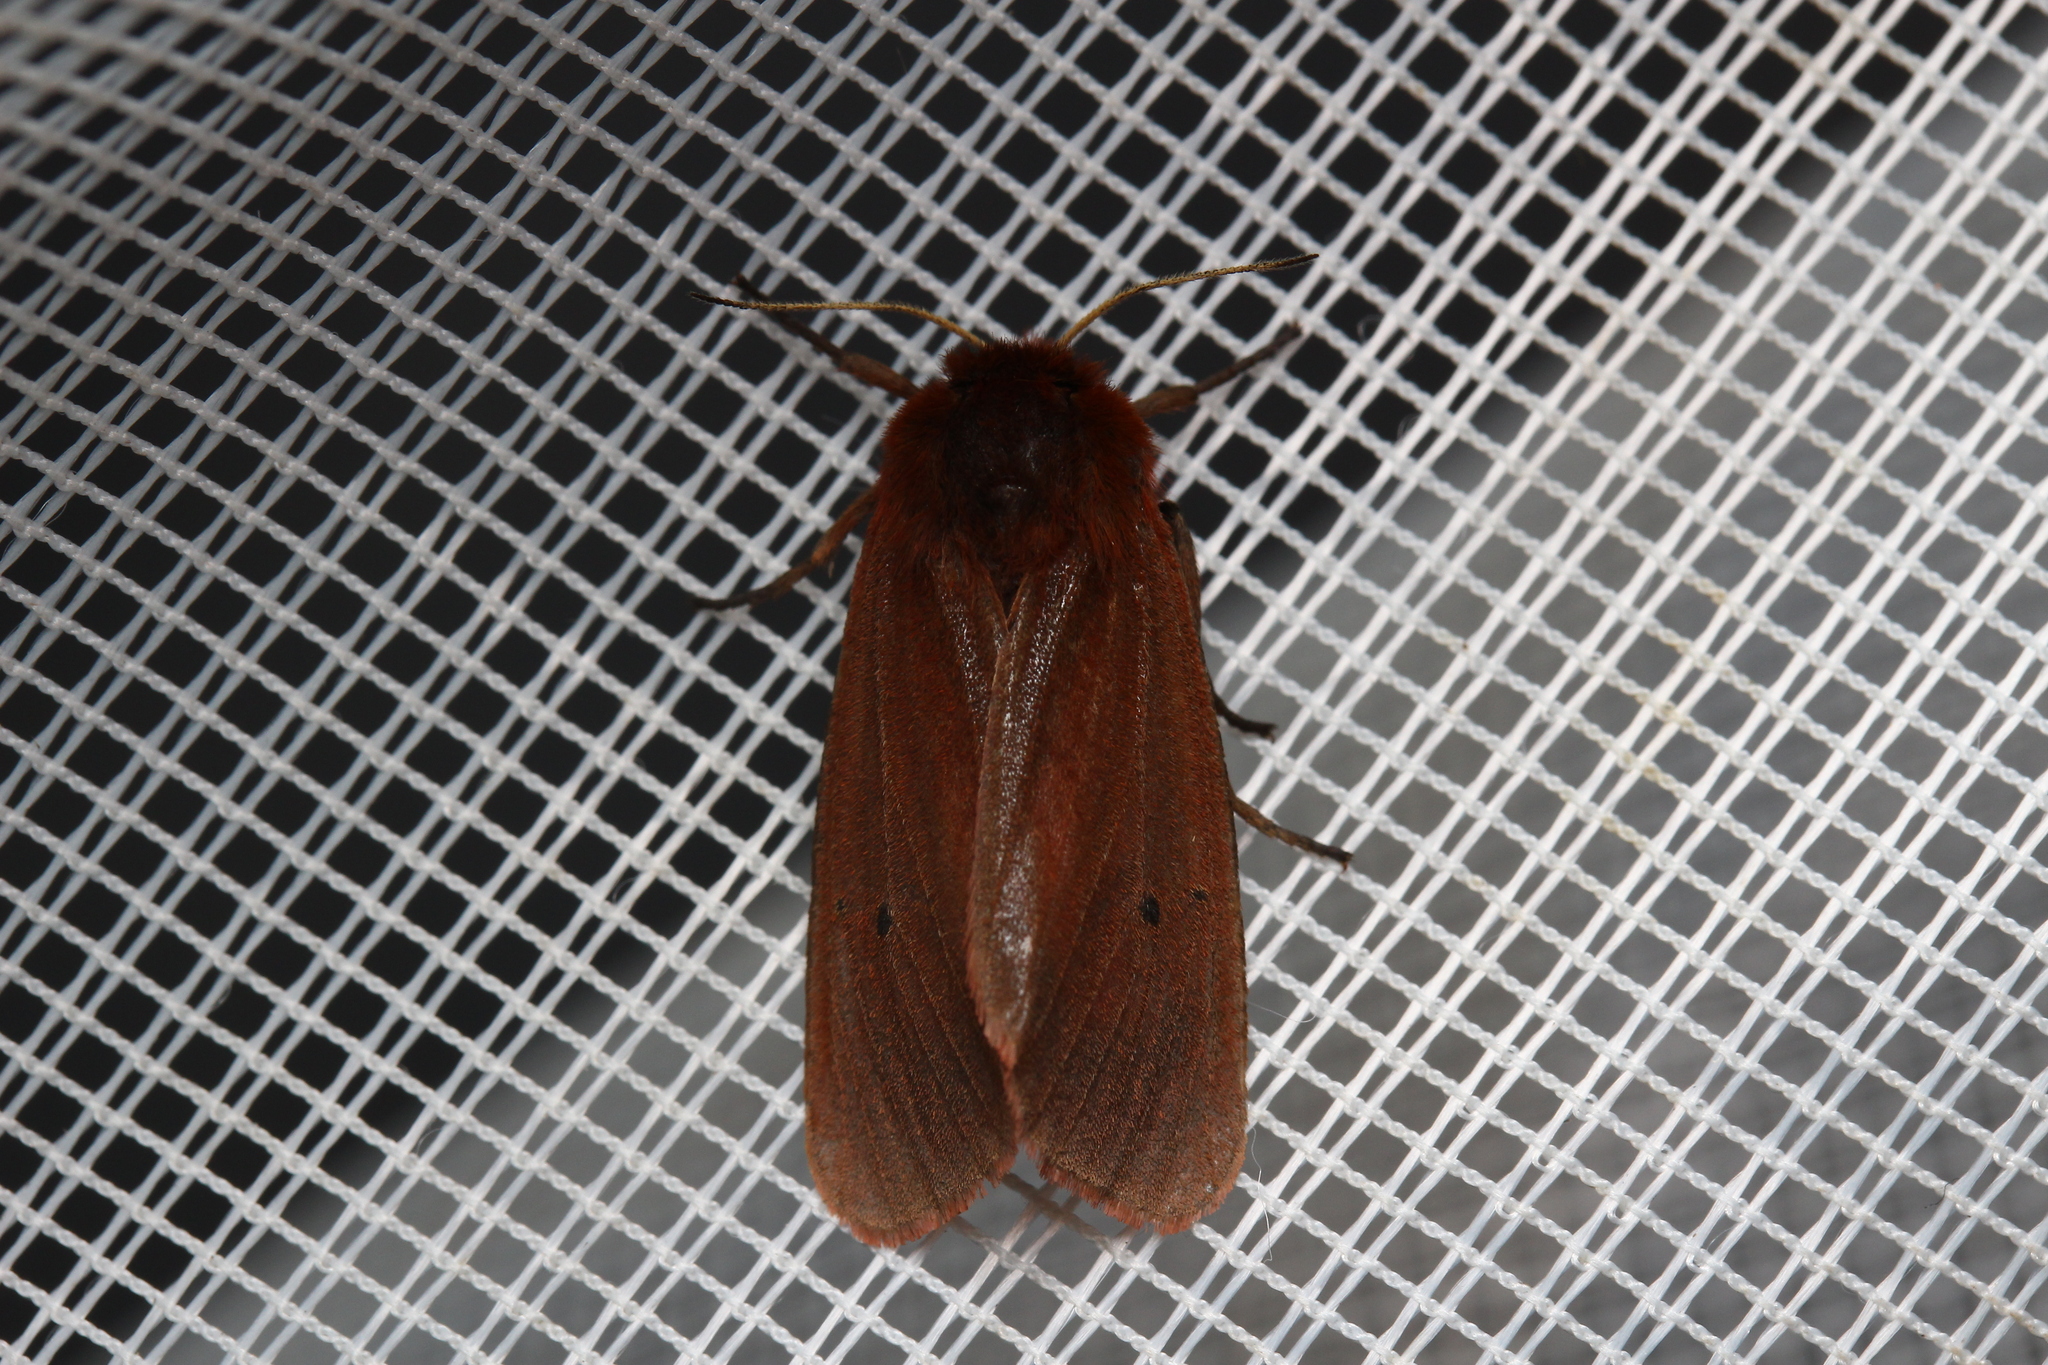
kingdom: Animalia
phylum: Arthropoda
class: Insecta
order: Lepidoptera
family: Erebidae
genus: Phragmatobia
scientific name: Phragmatobia fuliginosa
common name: Ruby tiger
